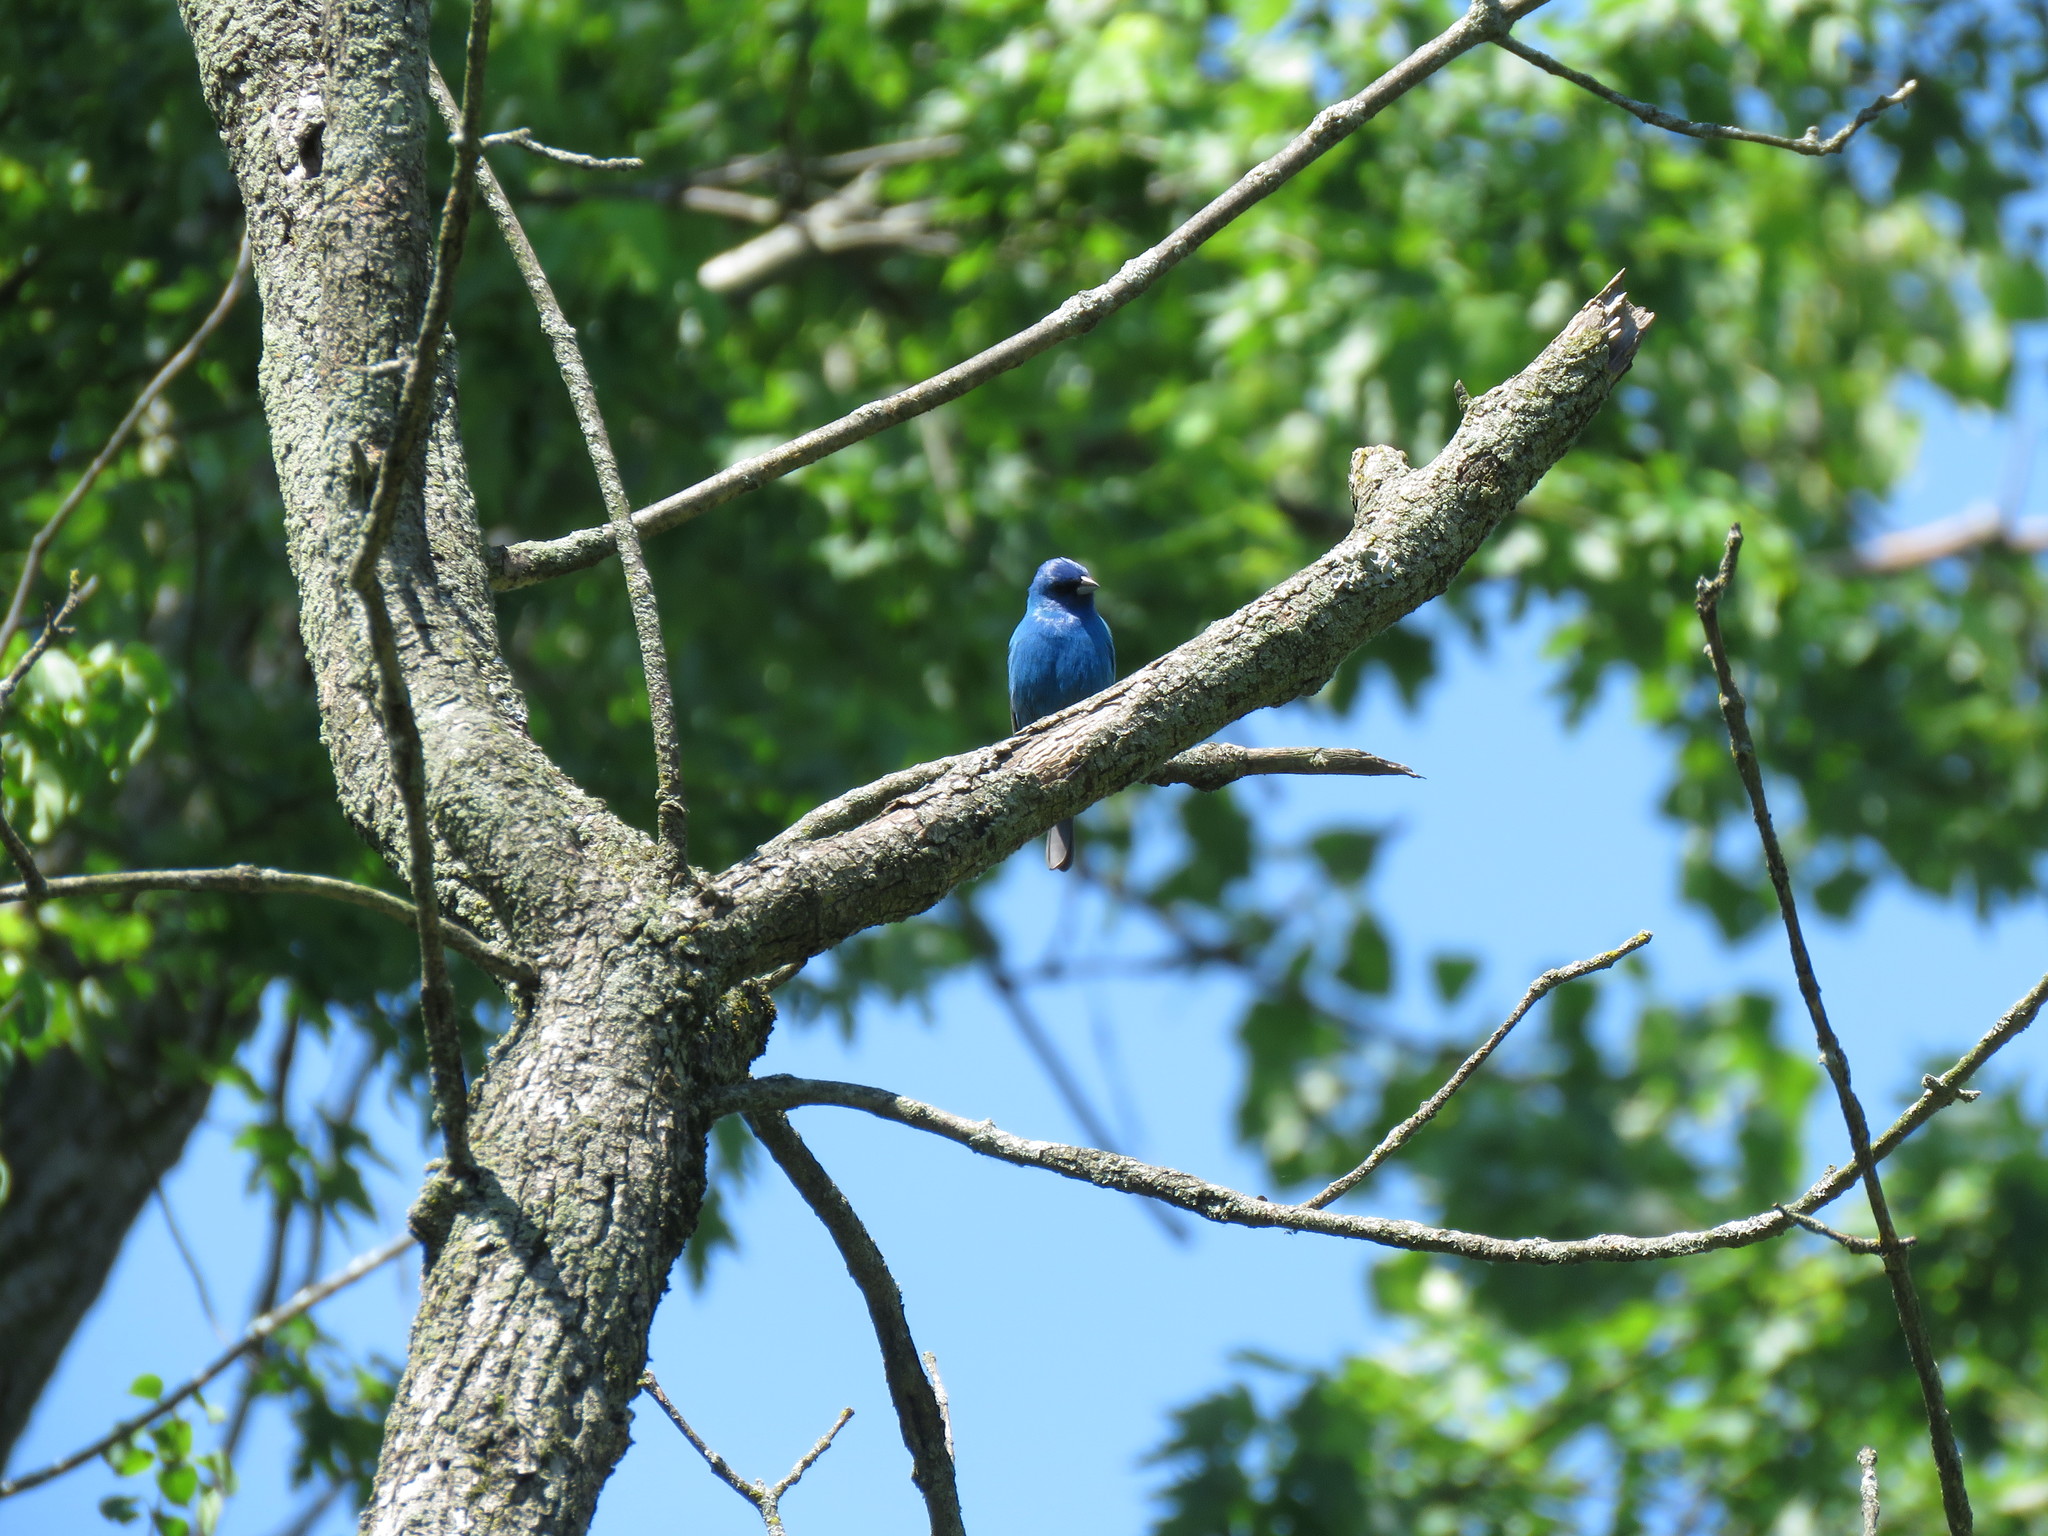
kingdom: Animalia
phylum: Chordata
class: Aves
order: Passeriformes
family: Cardinalidae
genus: Passerina
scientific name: Passerina cyanea
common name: Indigo bunting
